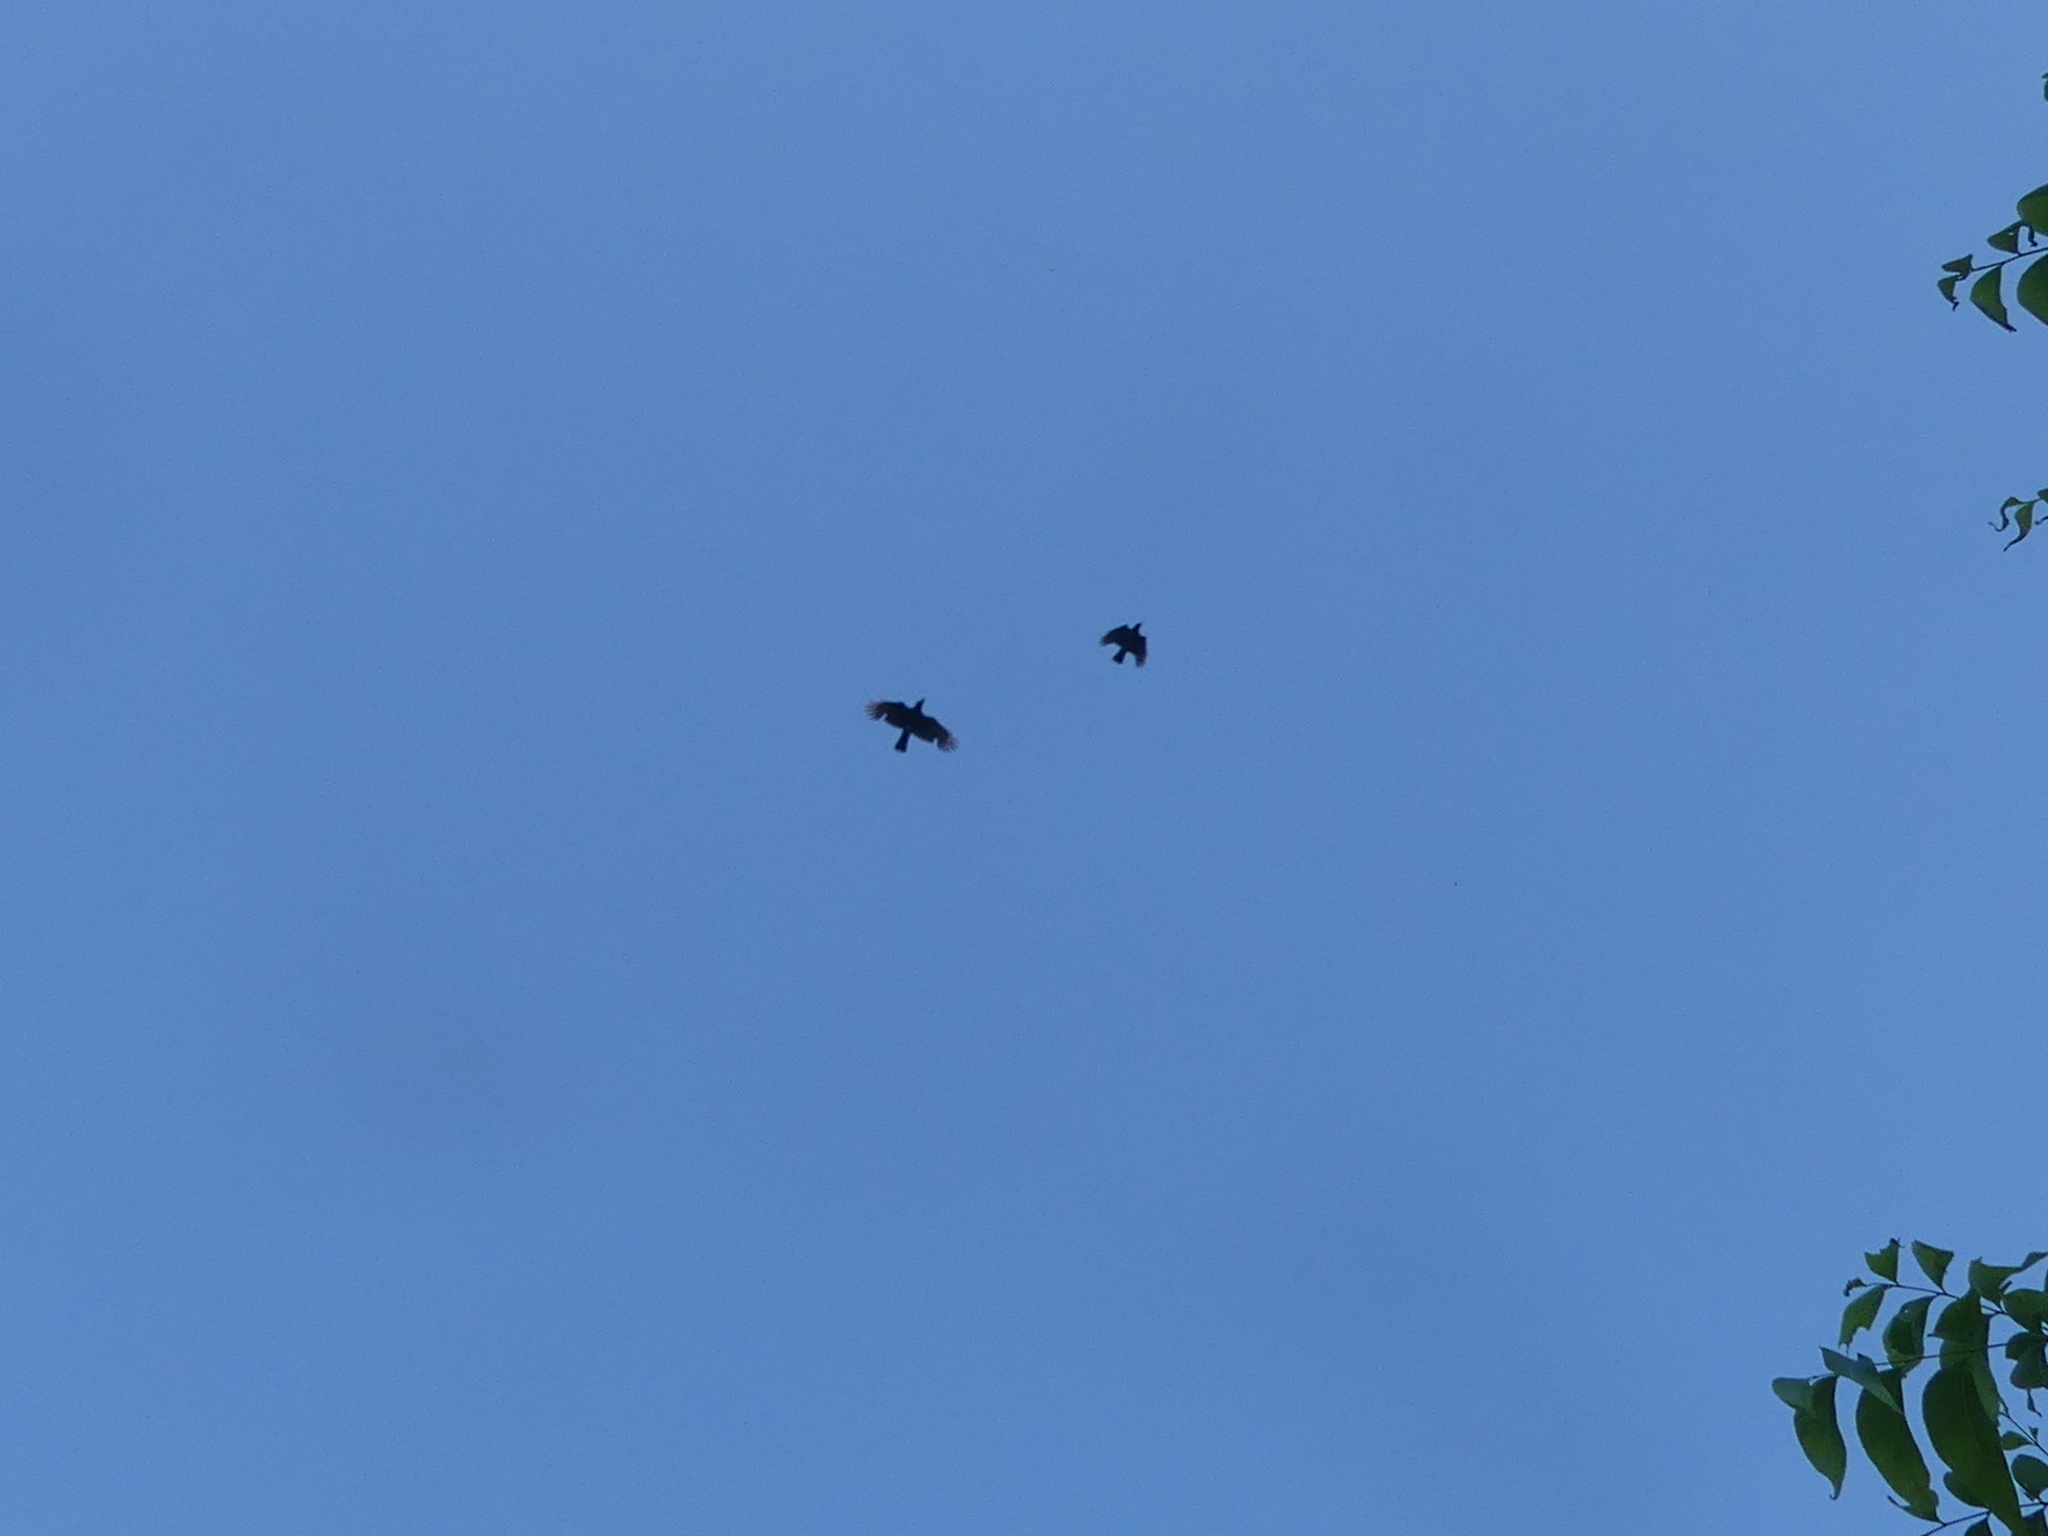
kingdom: Animalia
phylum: Chordata
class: Aves
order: Passeriformes
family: Corvidae
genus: Corvus
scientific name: Corvus brachyrhynchos
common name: American crow
